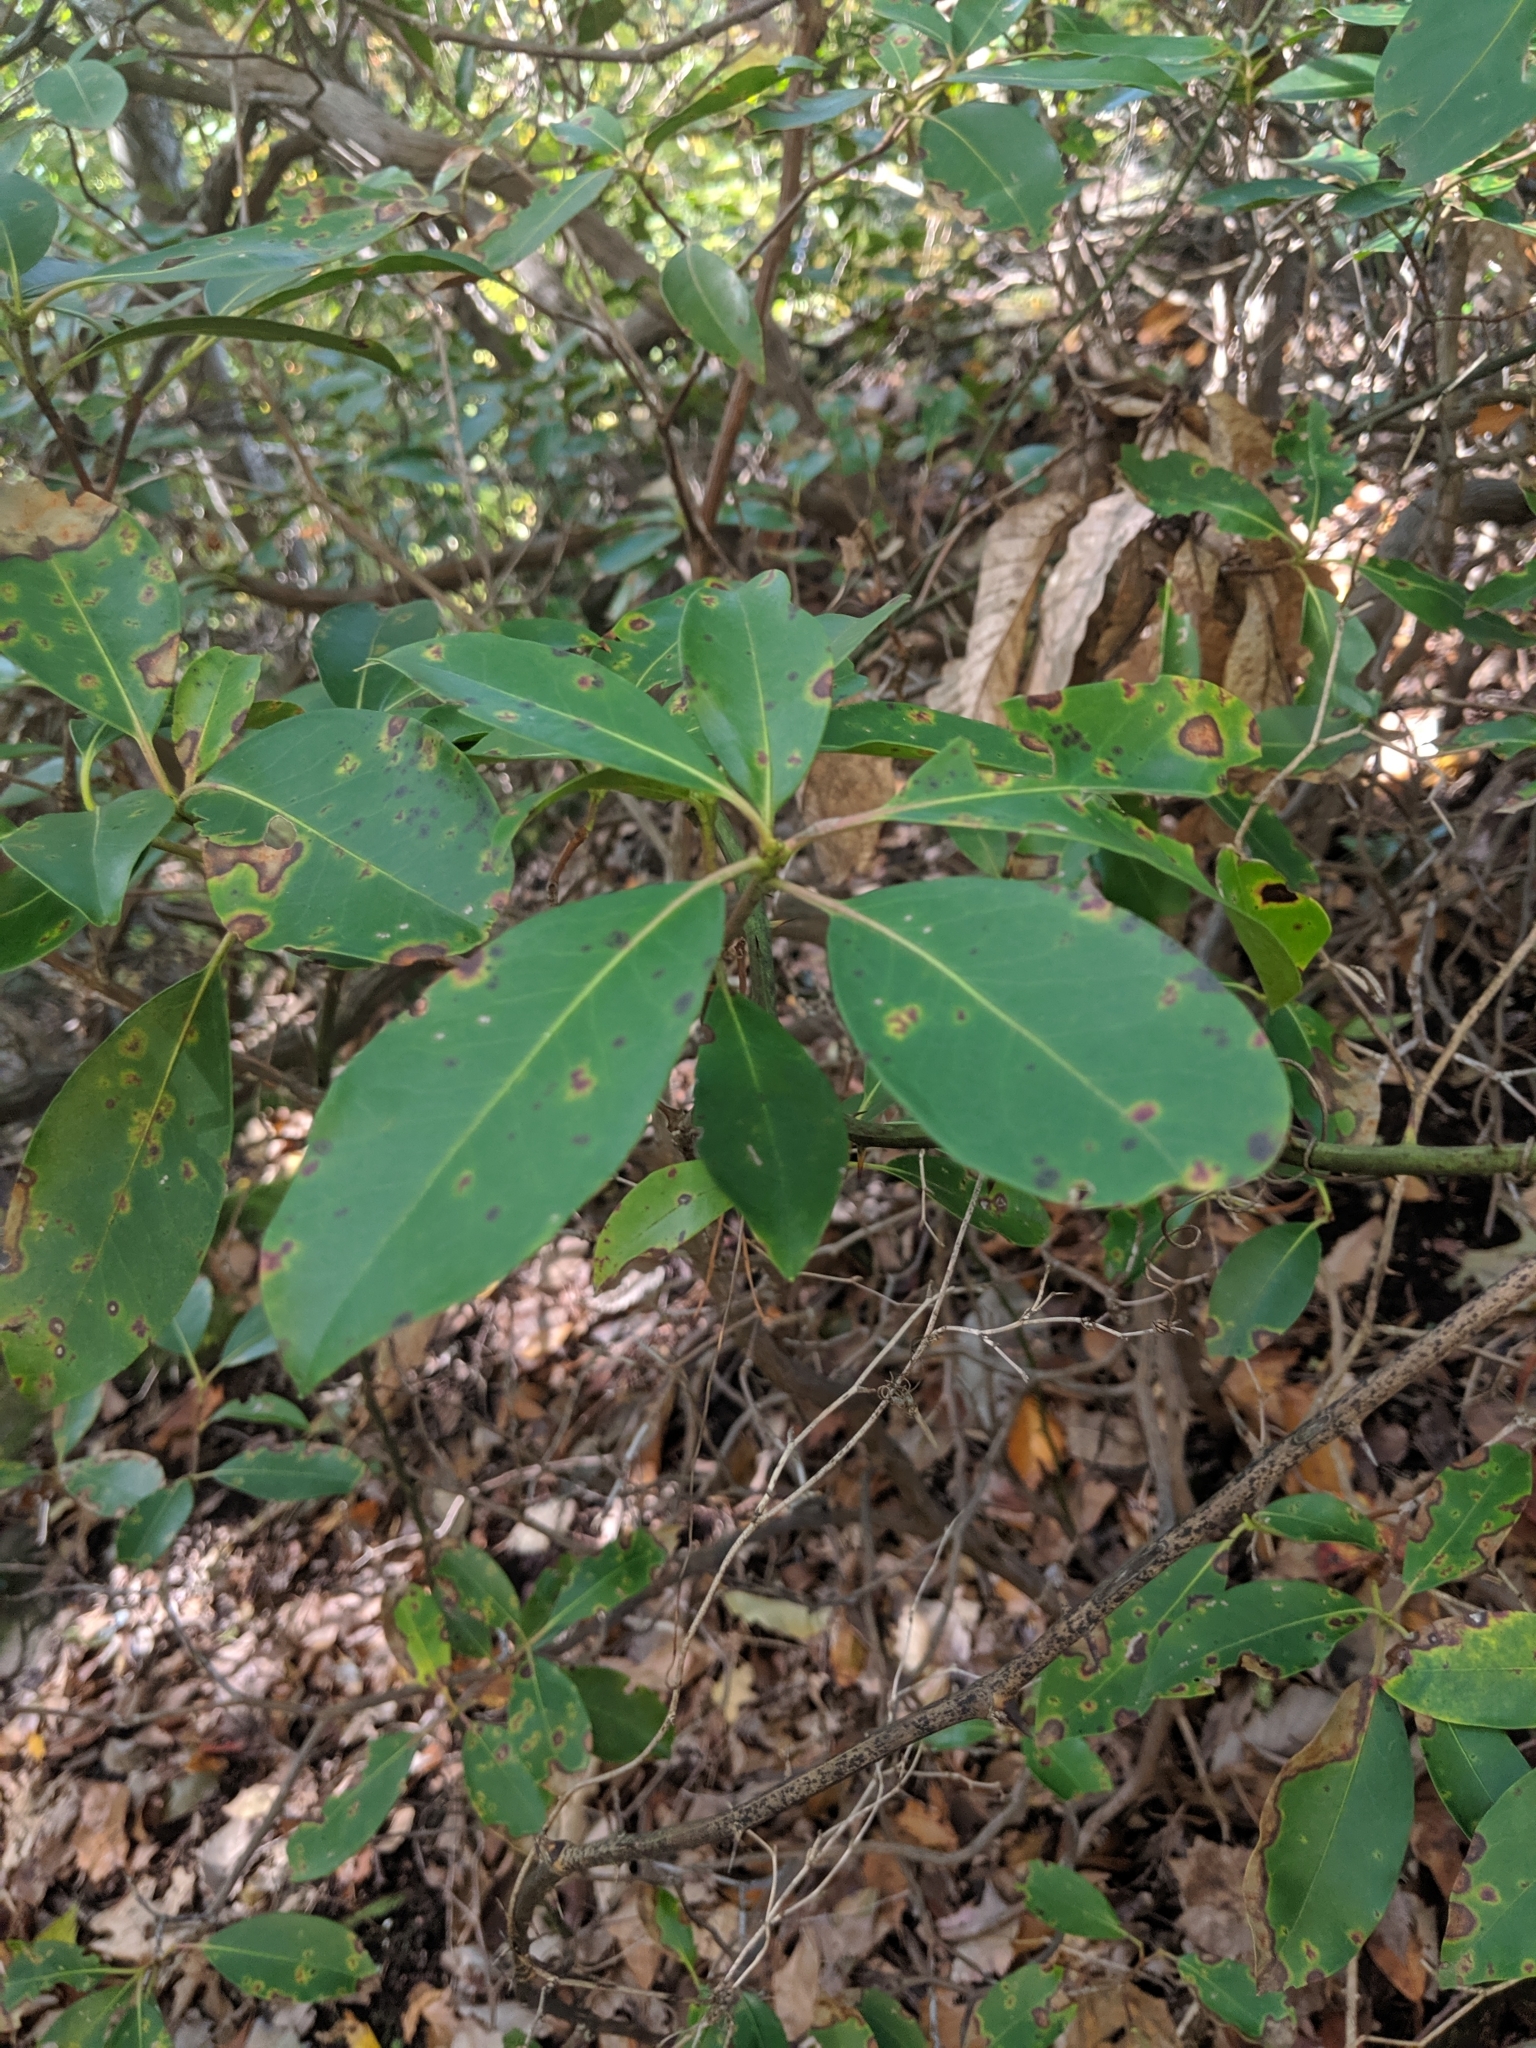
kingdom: Plantae
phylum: Tracheophyta
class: Magnoliopsida
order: Ericales
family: Ericaceae
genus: Kalmia
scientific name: Kalmia latifolia
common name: Mountain-laurel
